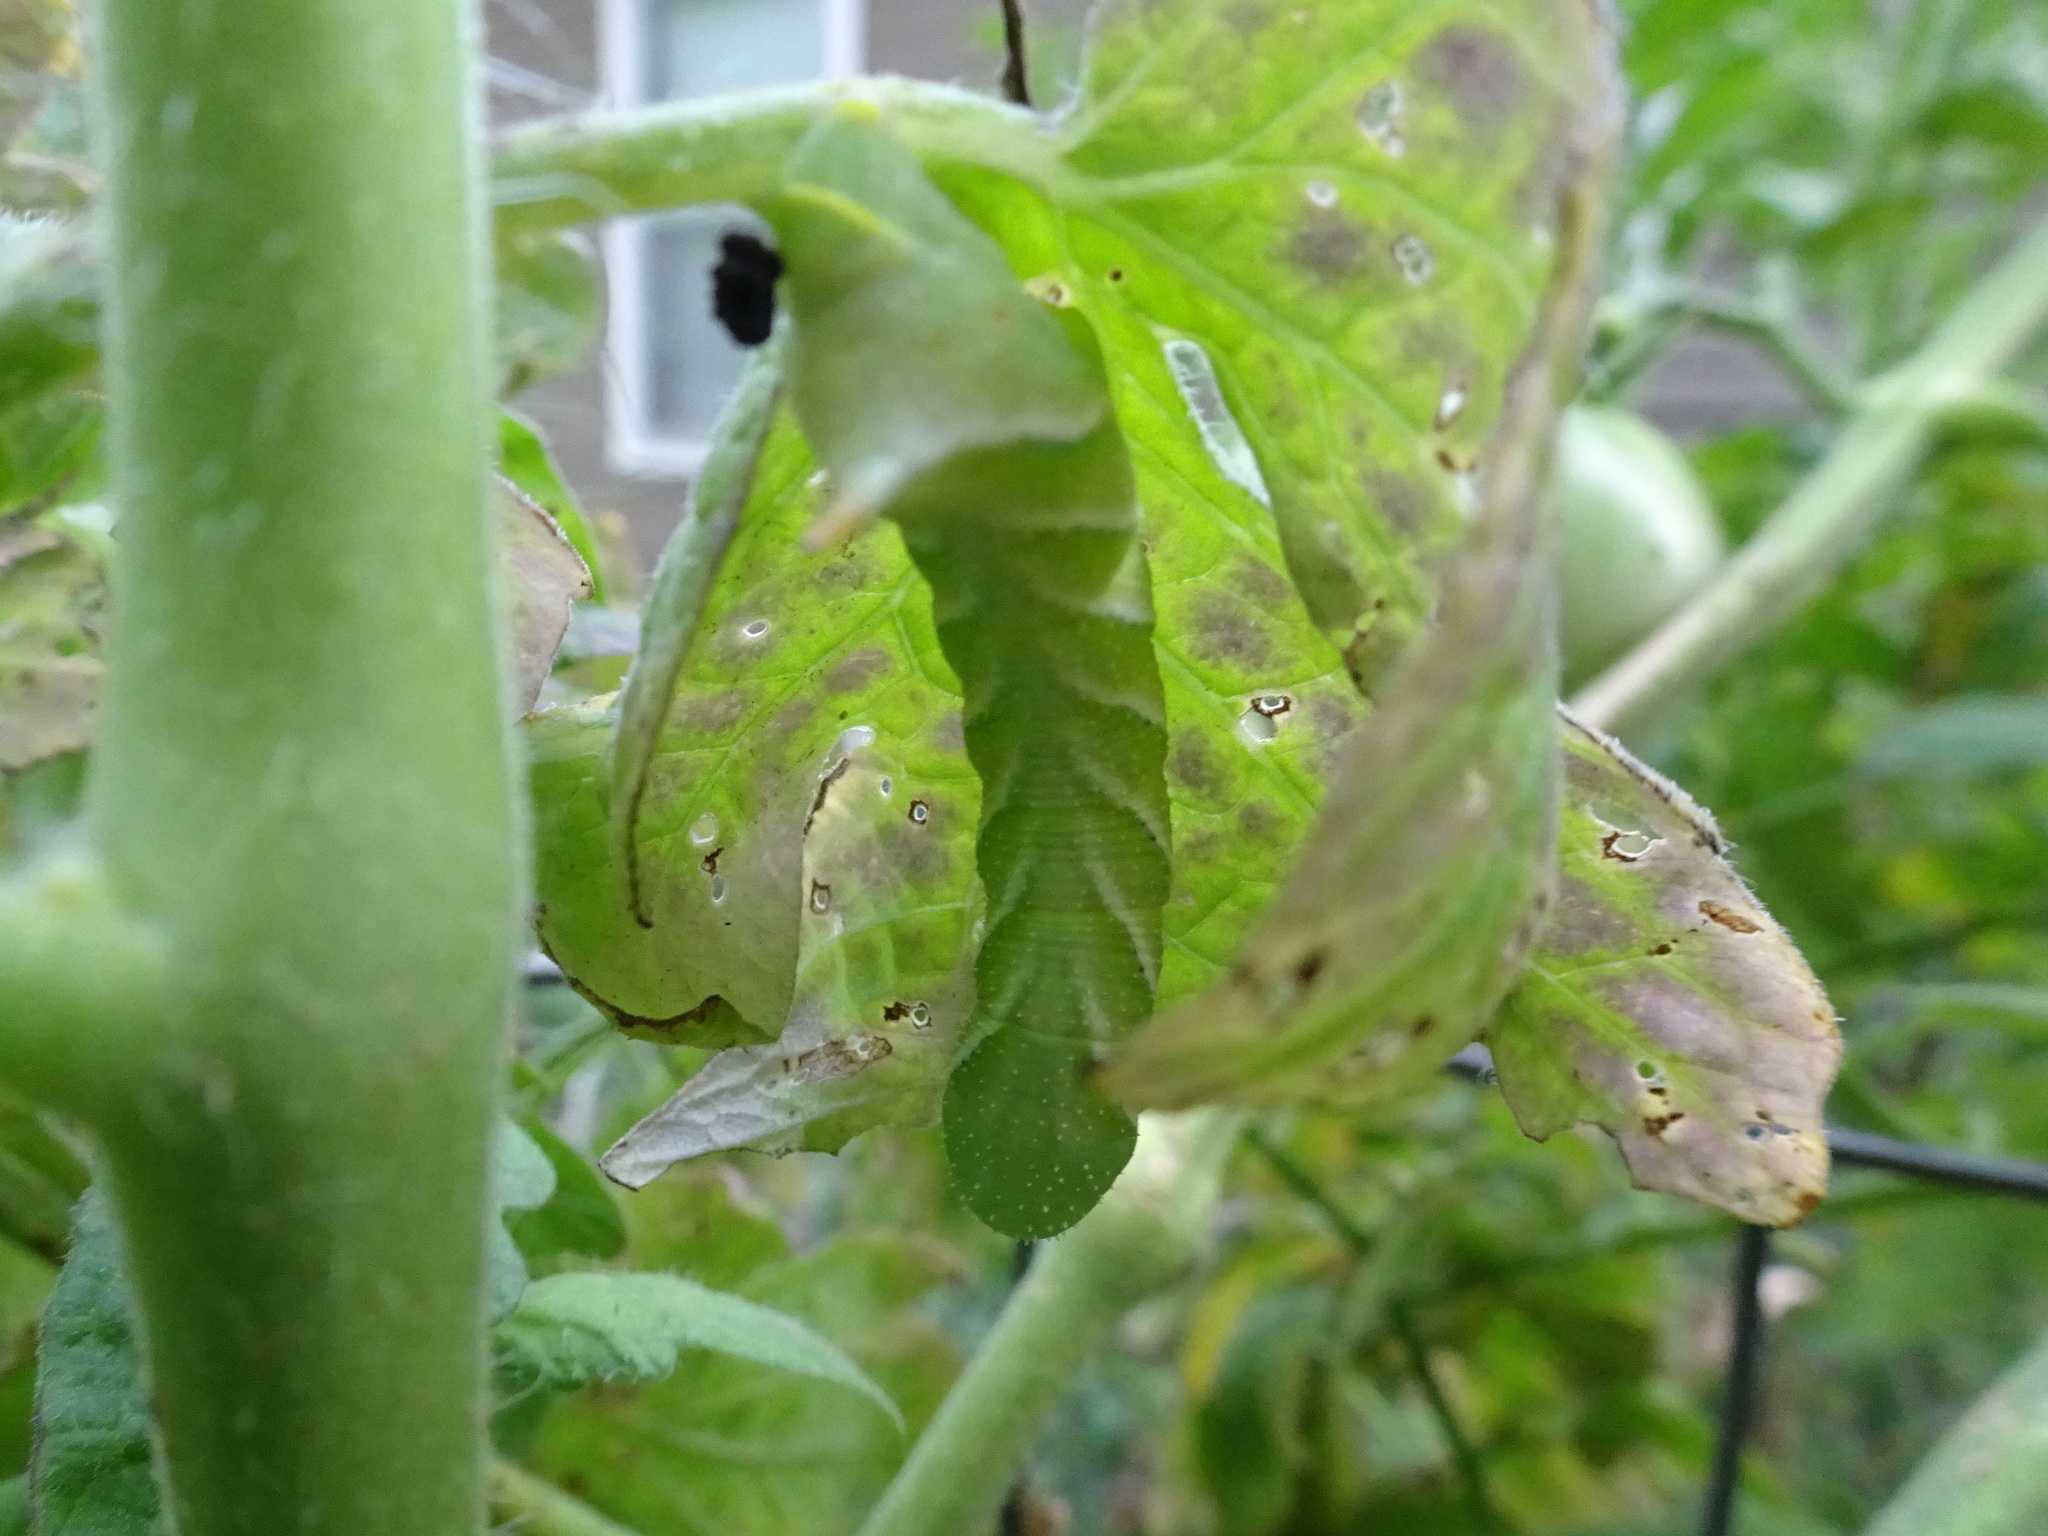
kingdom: Animalia
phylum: Arthropoda
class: Insecta
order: Lepidoptera
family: Sphingidae
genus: Manduca
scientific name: Manduca sexta
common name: Carolina sphinx
